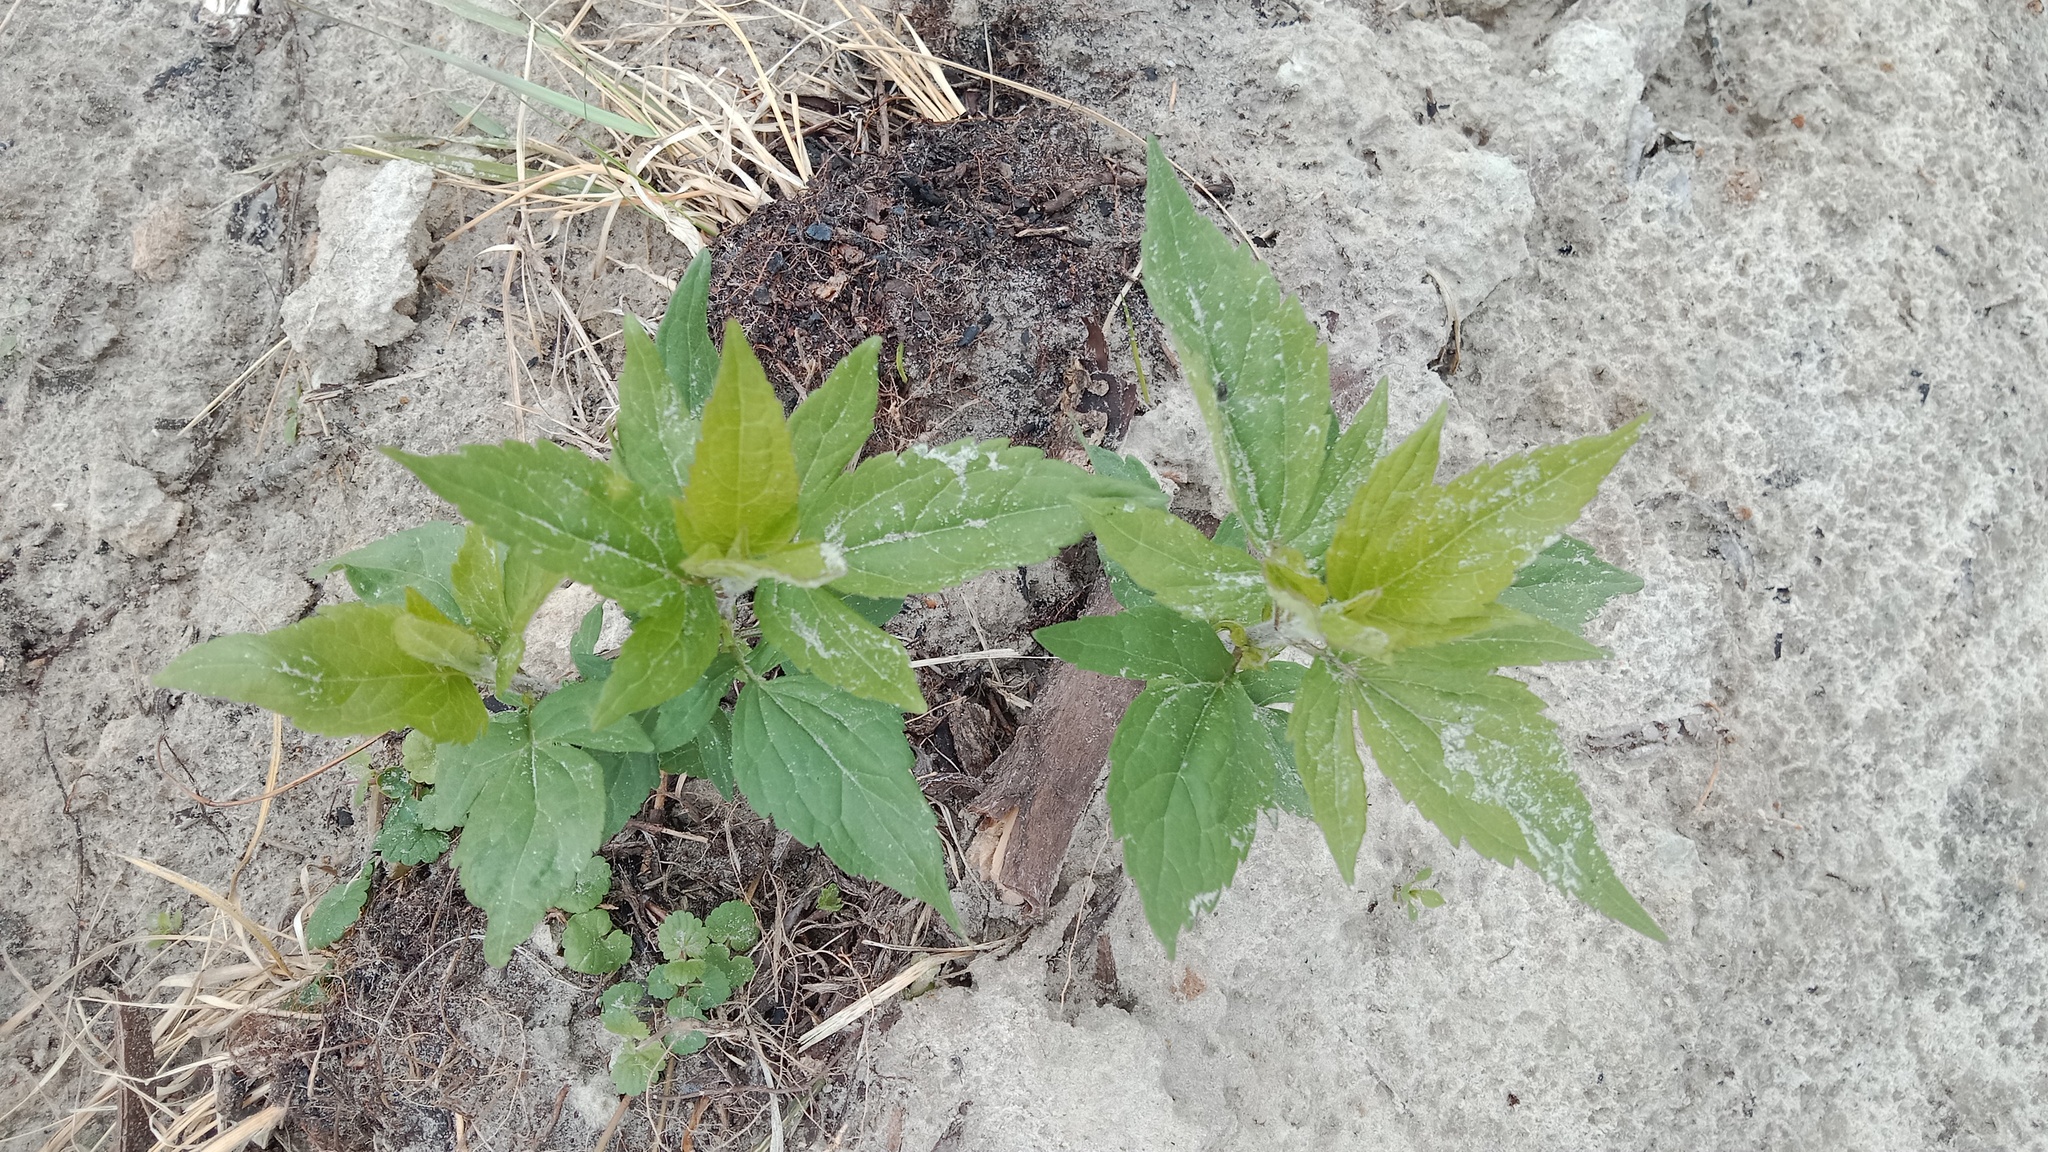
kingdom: Plantae
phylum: Tracheophyta
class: Magnoliopsida
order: Asterales
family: Asteraceae
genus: Eupatorium
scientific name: Eupatorium cannabinum
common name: Hemp-agrimony
